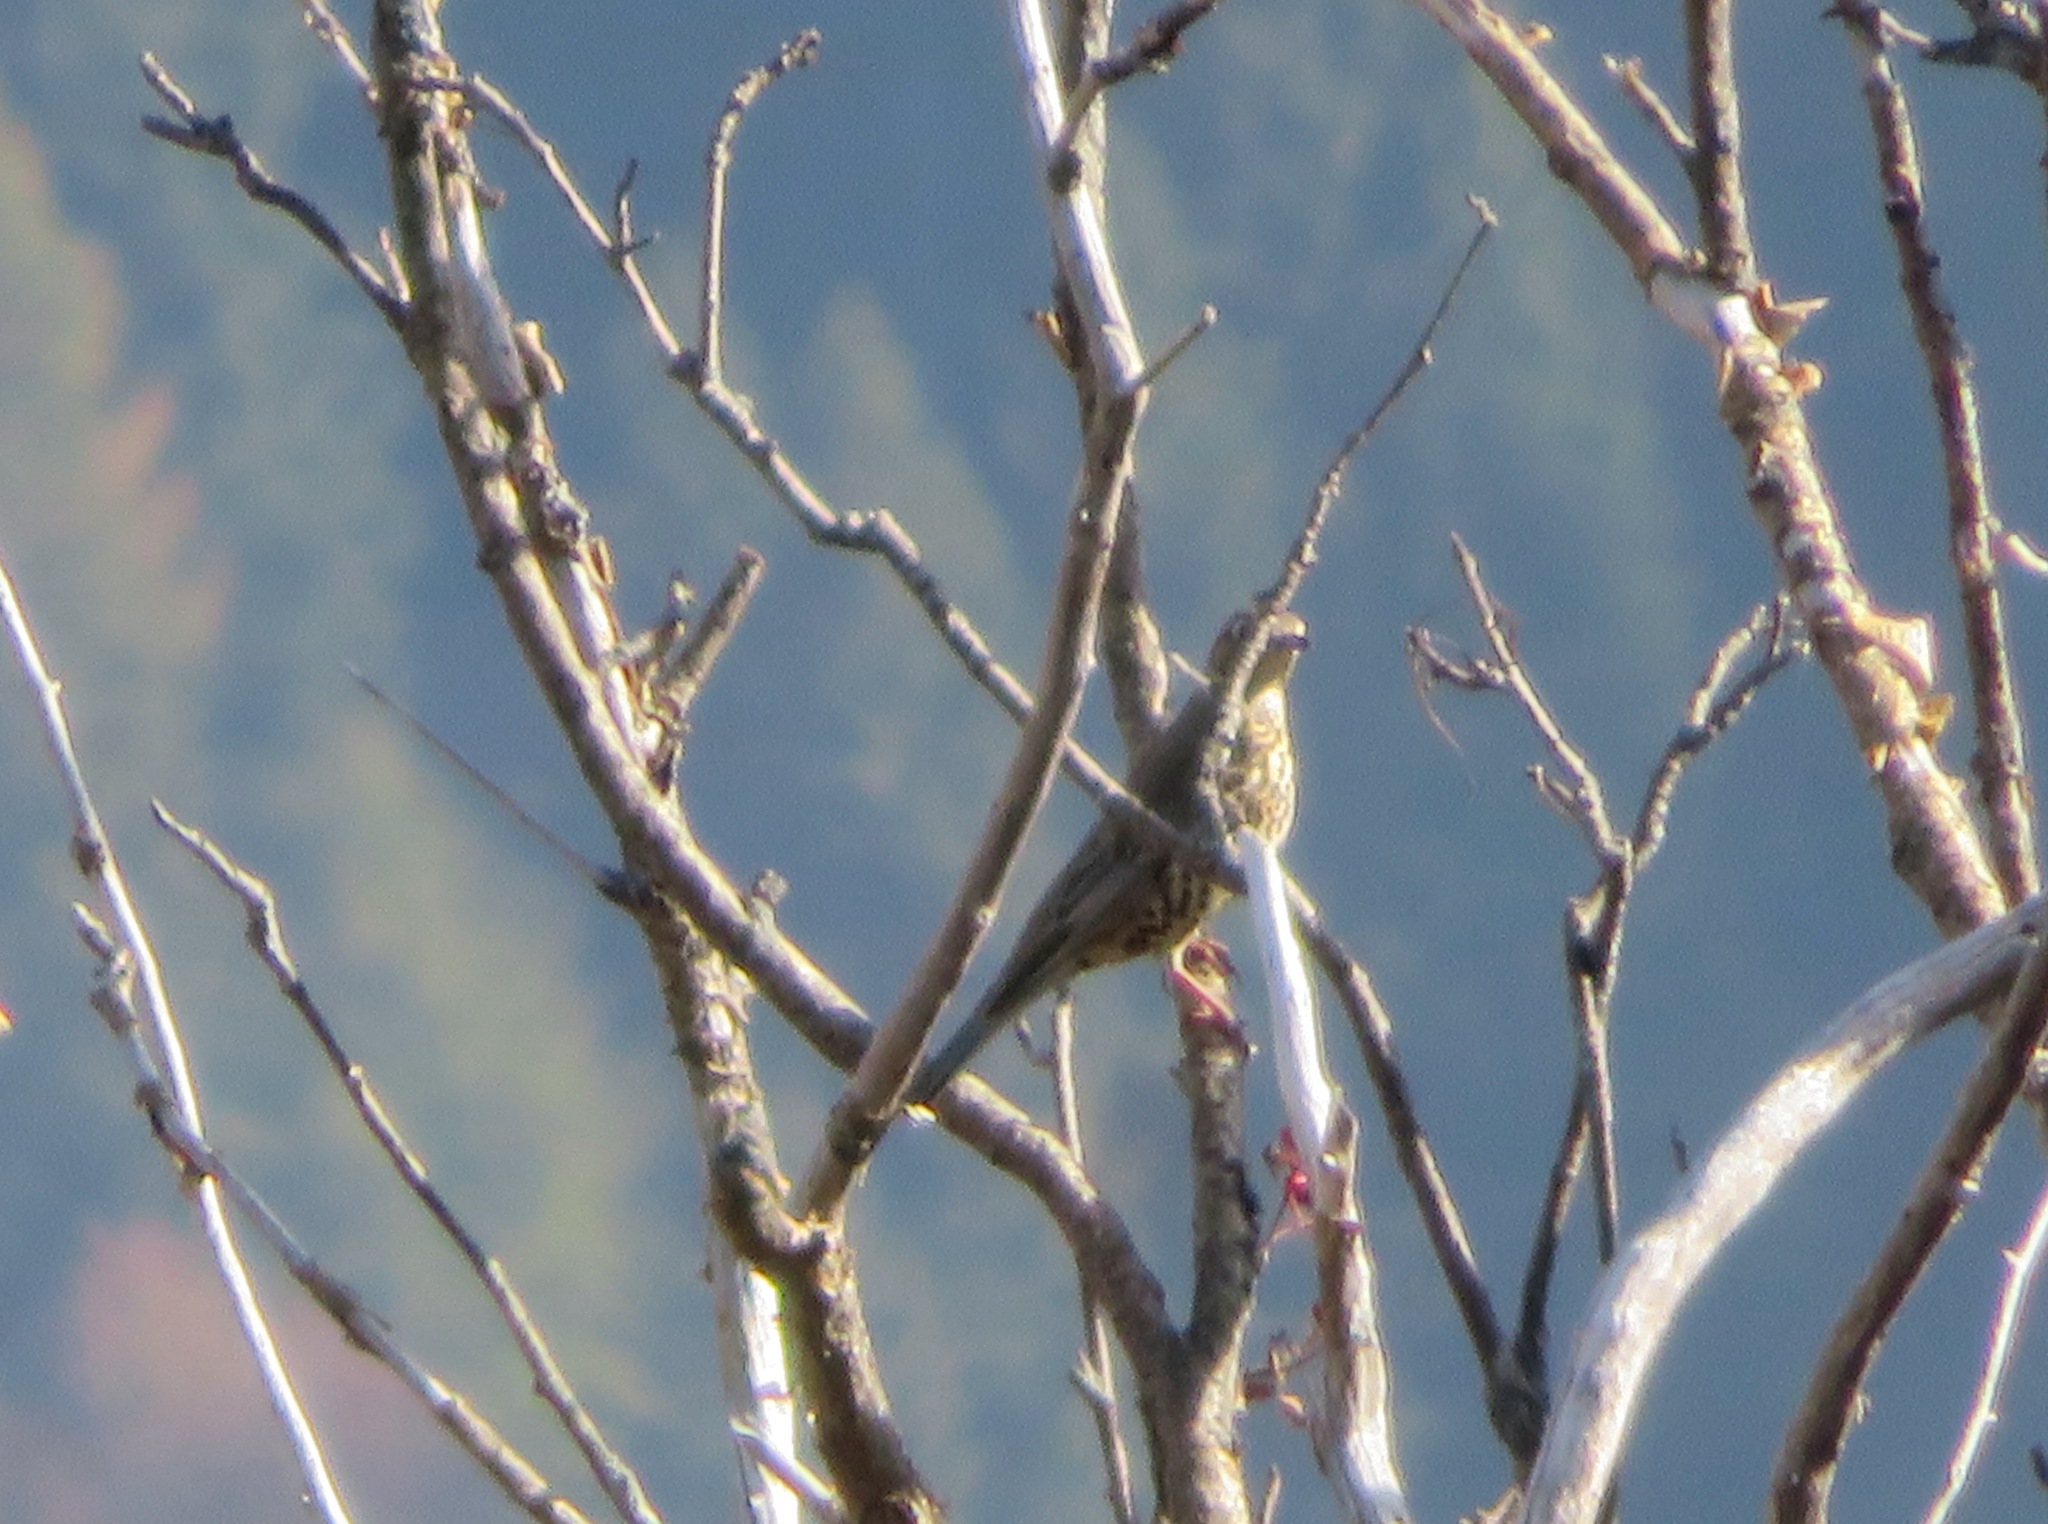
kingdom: Animalia
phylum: Chordata
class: Aves
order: Passeriformes
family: Turdidae
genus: Turdus
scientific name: Turdus viscivorus
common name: Mistle thrush
